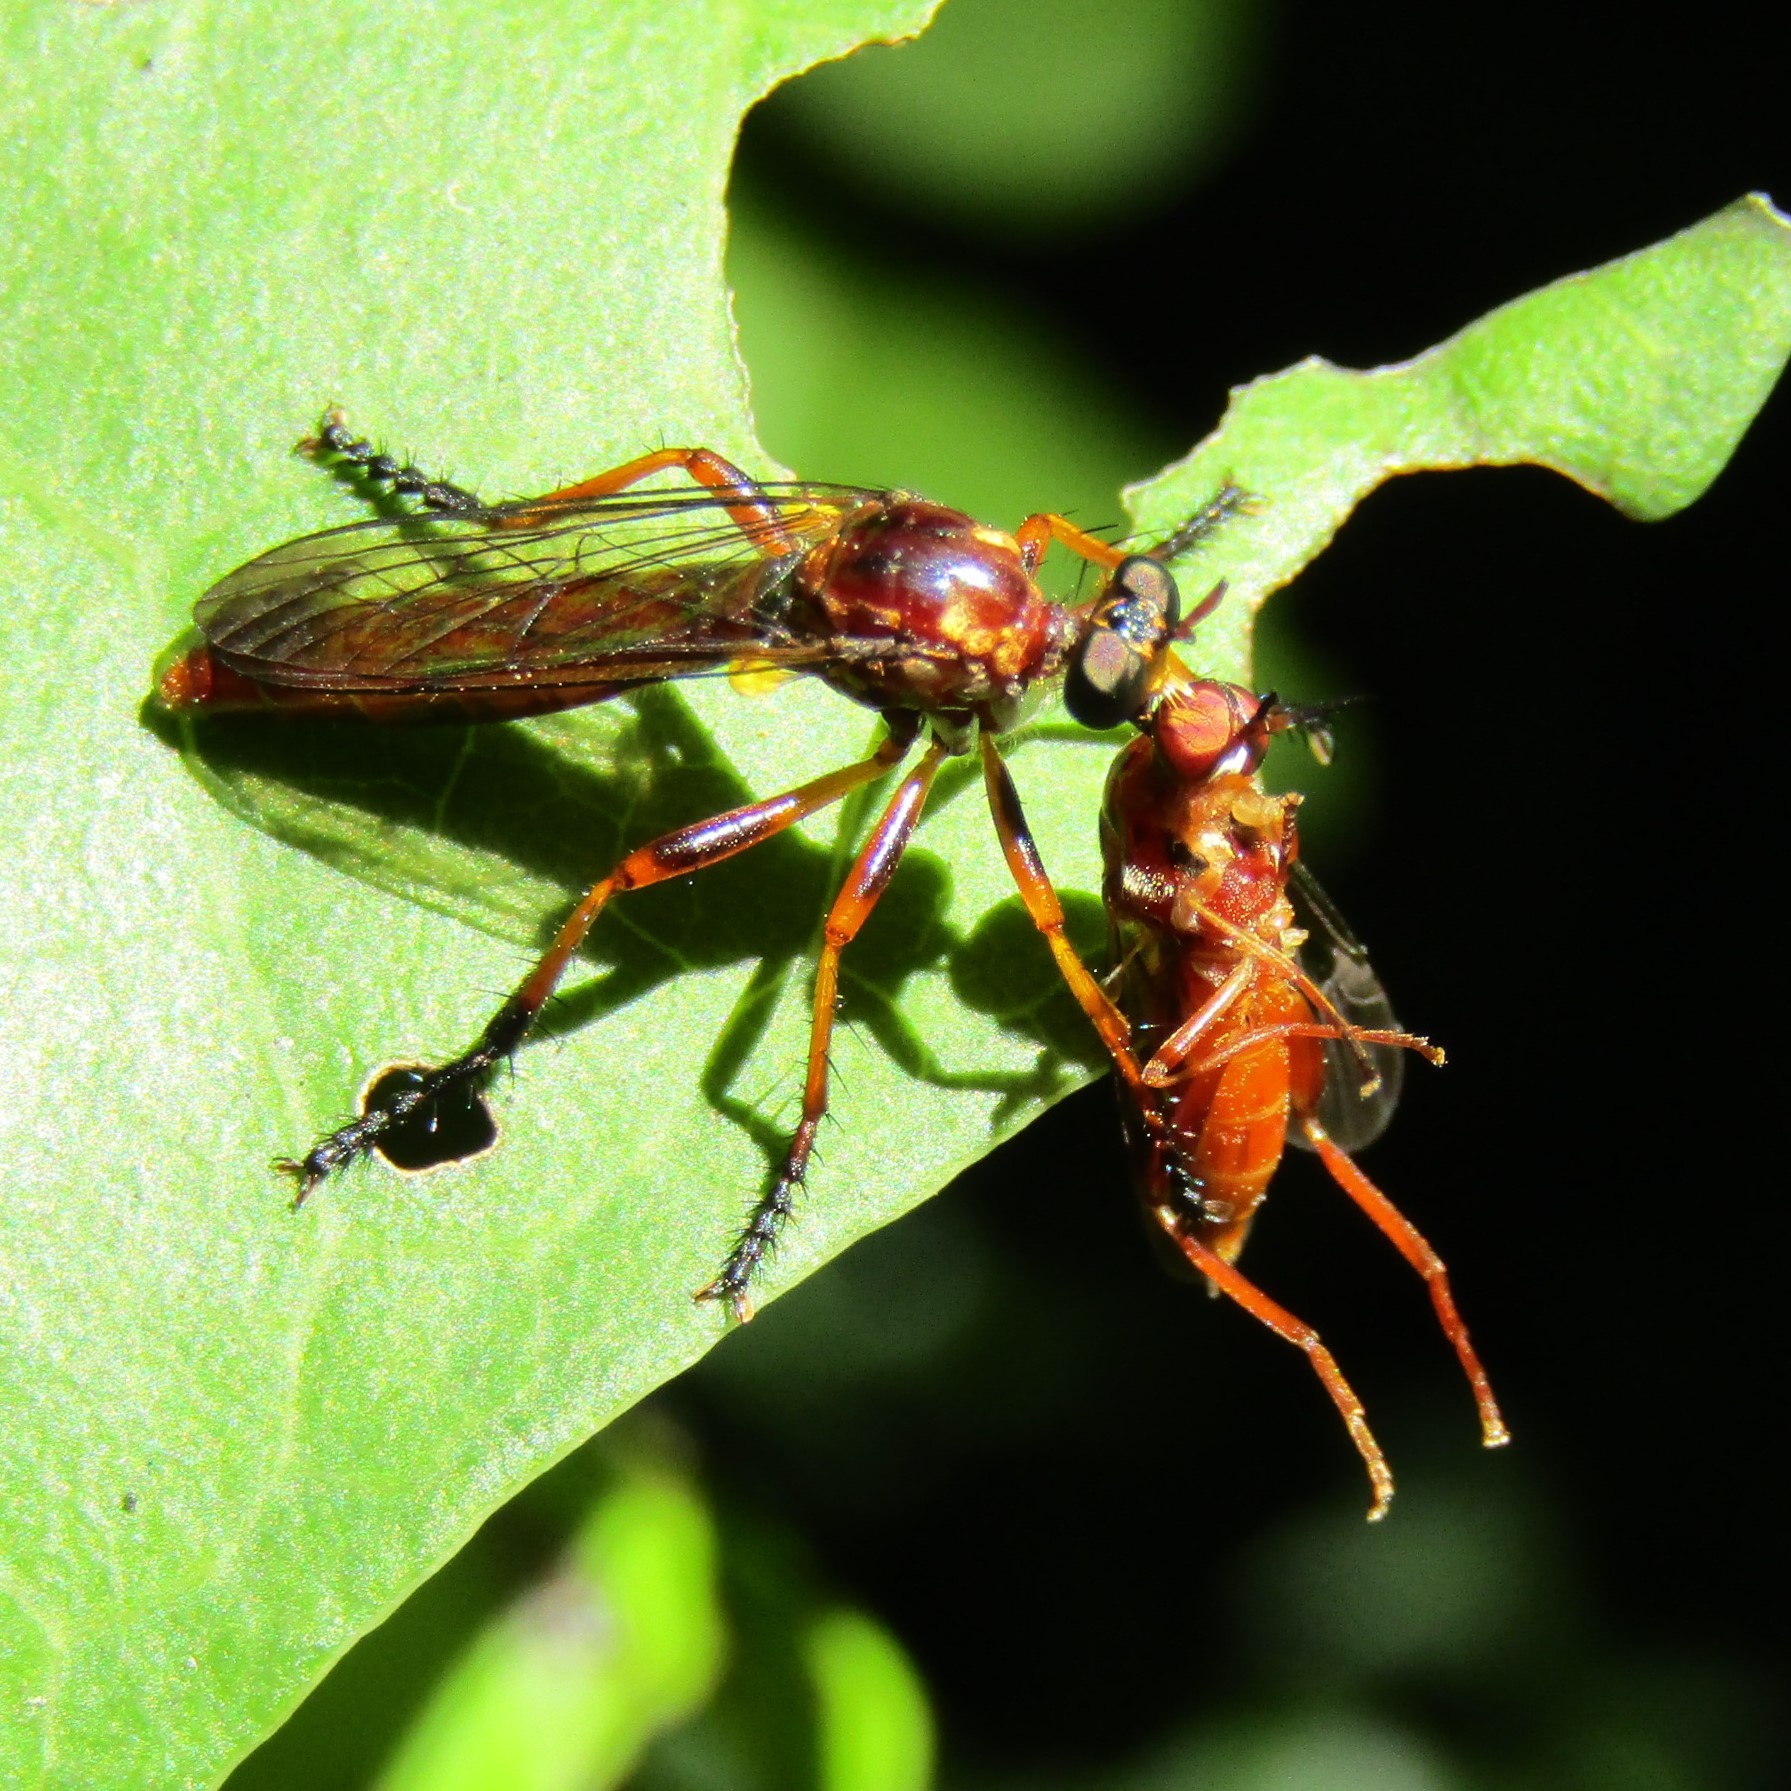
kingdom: Animalia
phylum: Arthropoda
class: Insecta
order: Diptera
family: Asilidae
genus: Saropogon
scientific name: Saropogon antipodus
